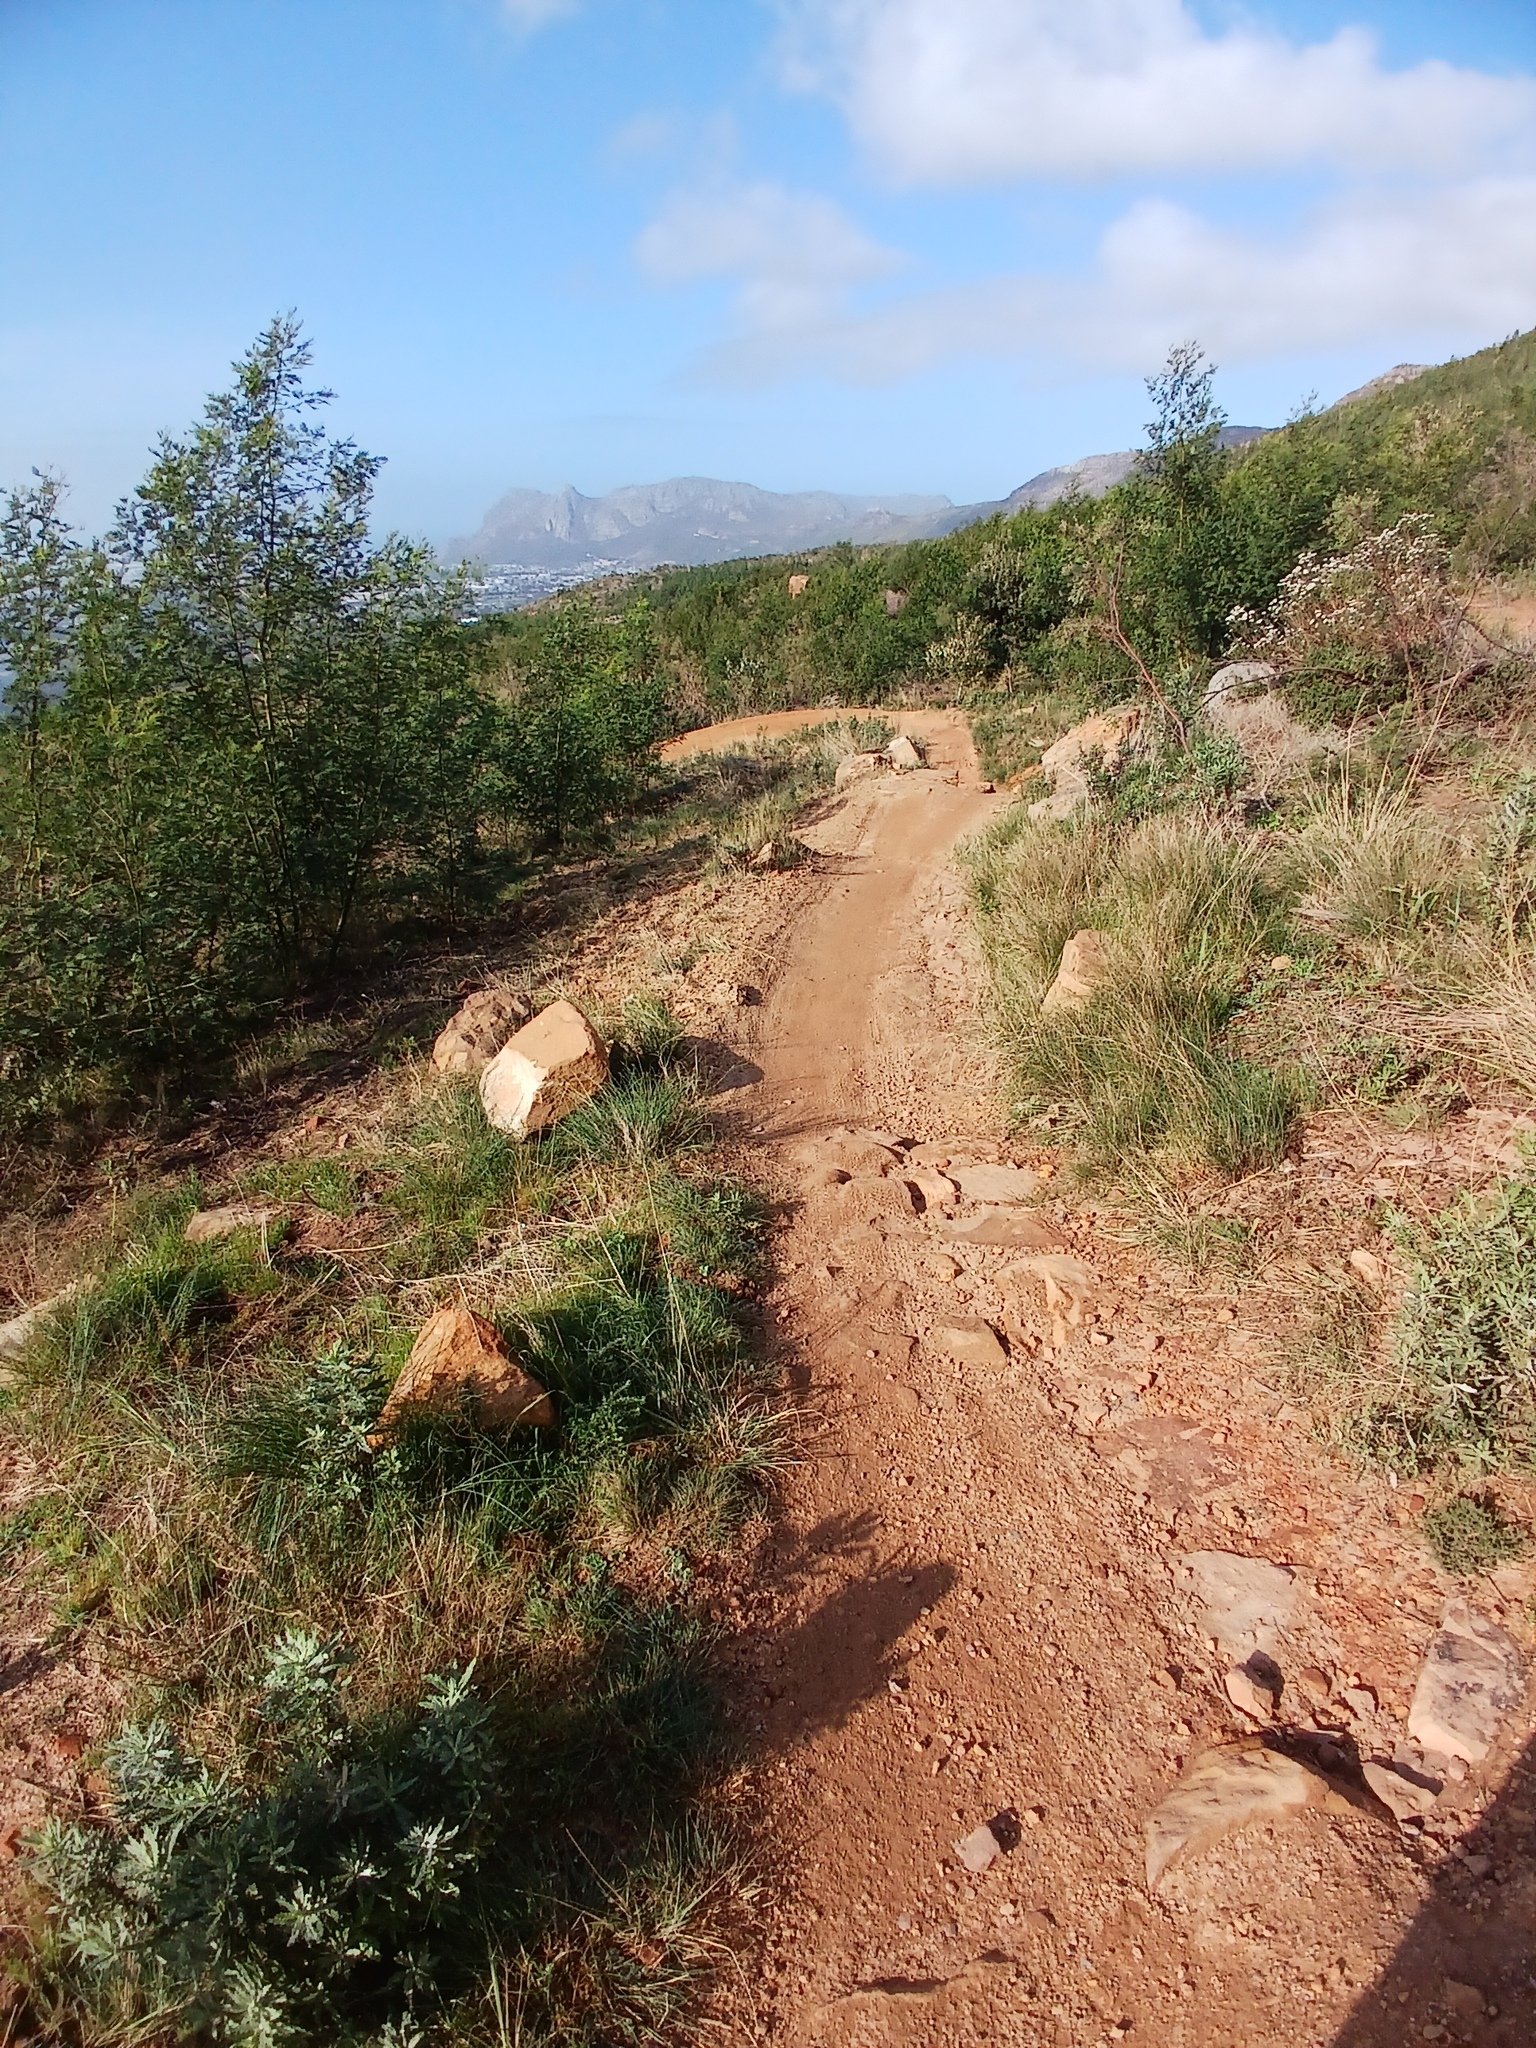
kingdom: Plantae
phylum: Tracheophyta
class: Magnoliopsida
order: Asterales
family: Asteraceae
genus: Senecio
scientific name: Senecio pterophorus
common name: Shoddy ragwort
